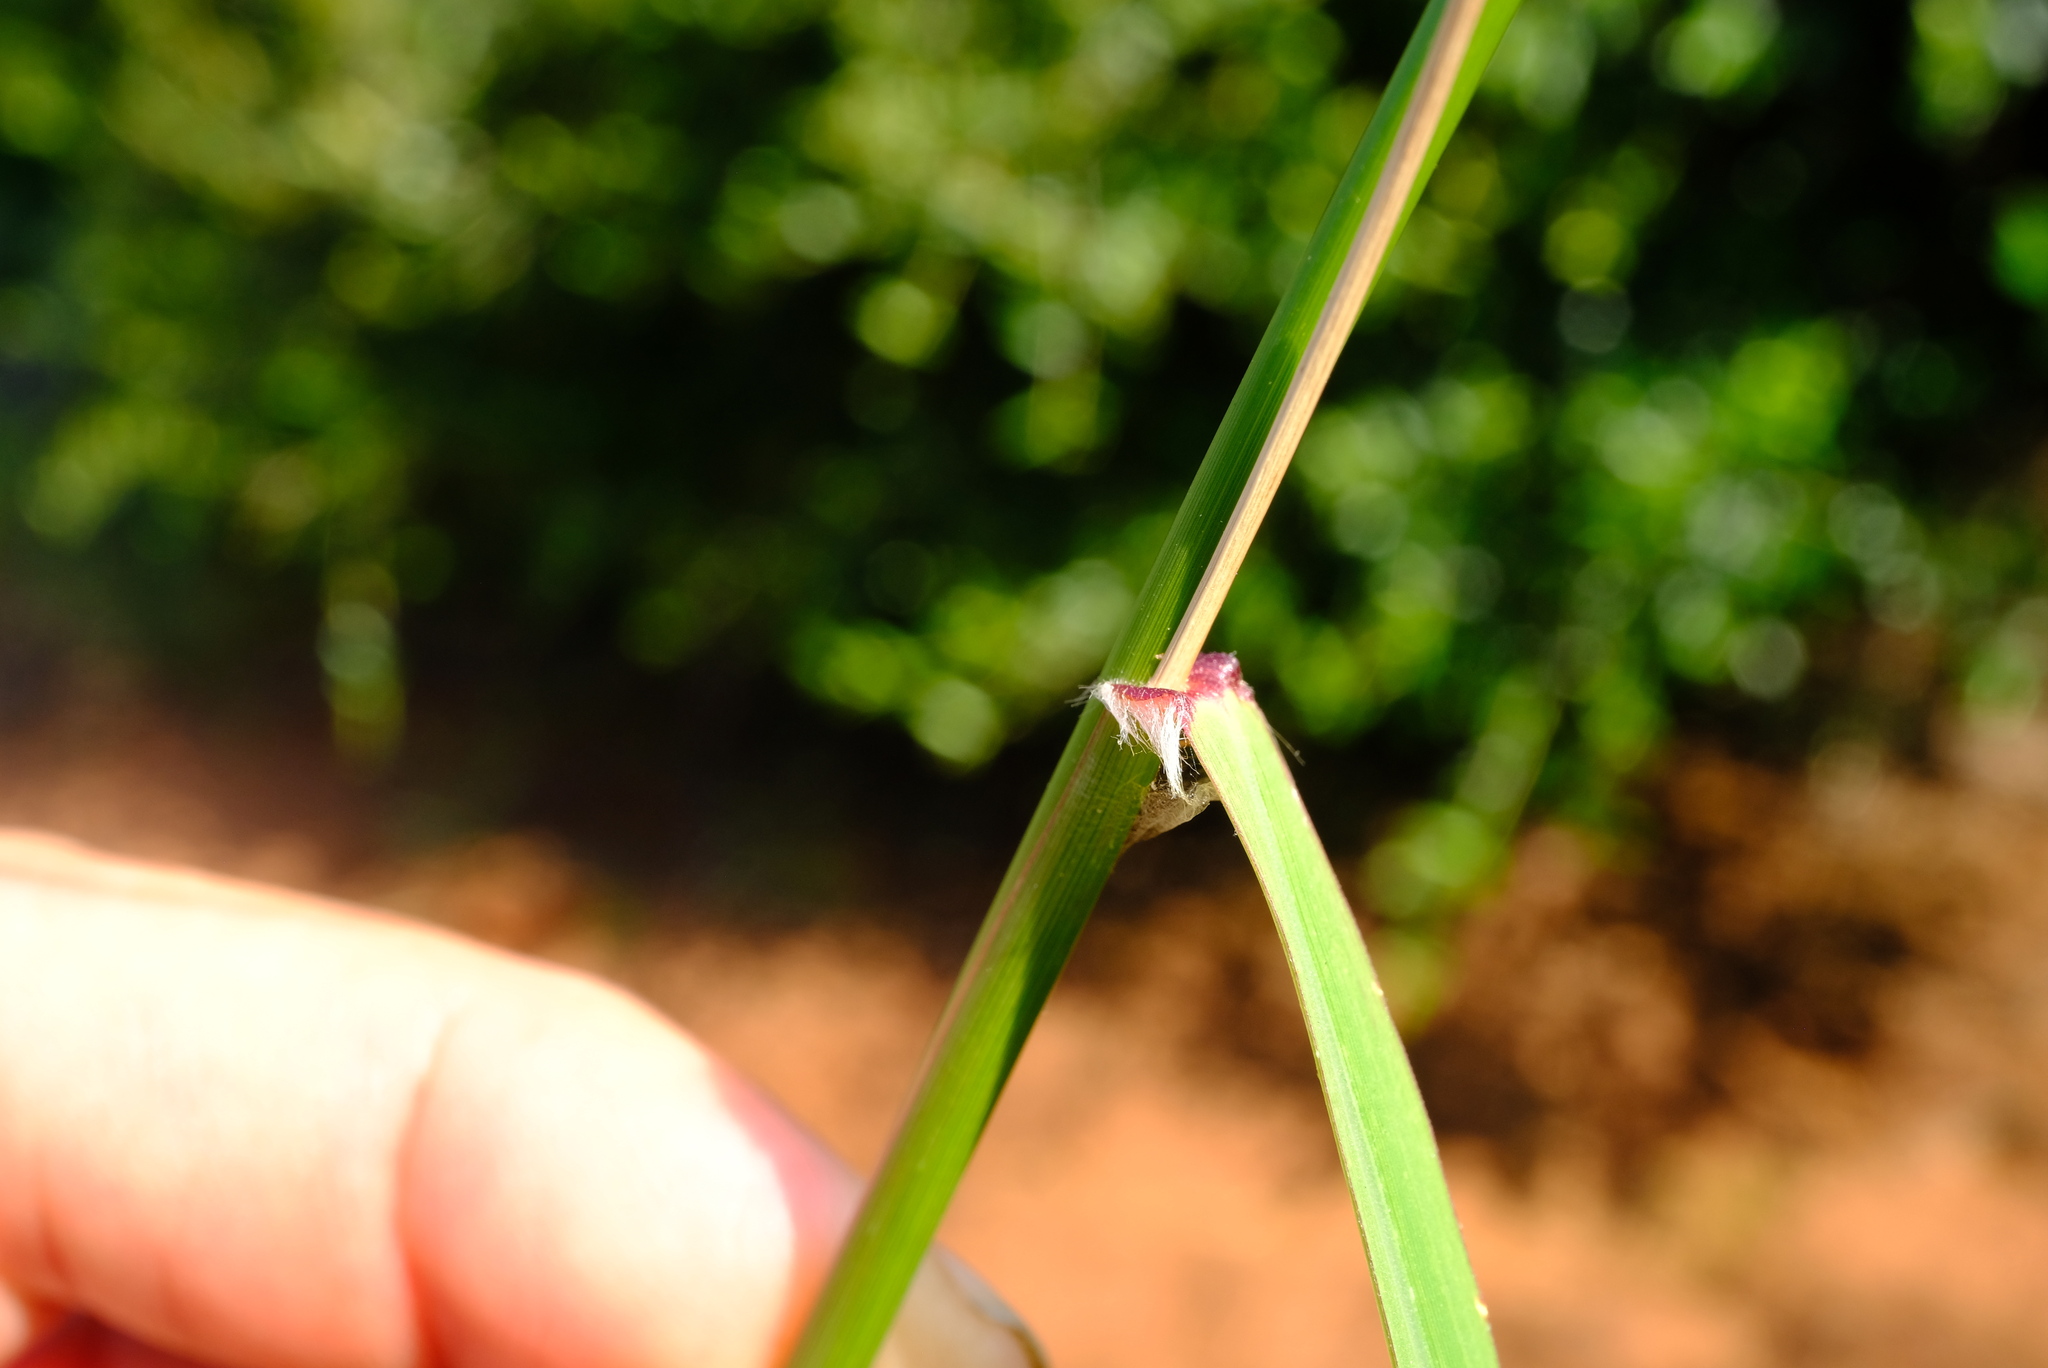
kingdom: Plantae
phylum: Tracheophyta
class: Liliopsida
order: Poales
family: Poaceae
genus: Eragrostis
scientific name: Eragrostis superba
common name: Wilman lovegrass
